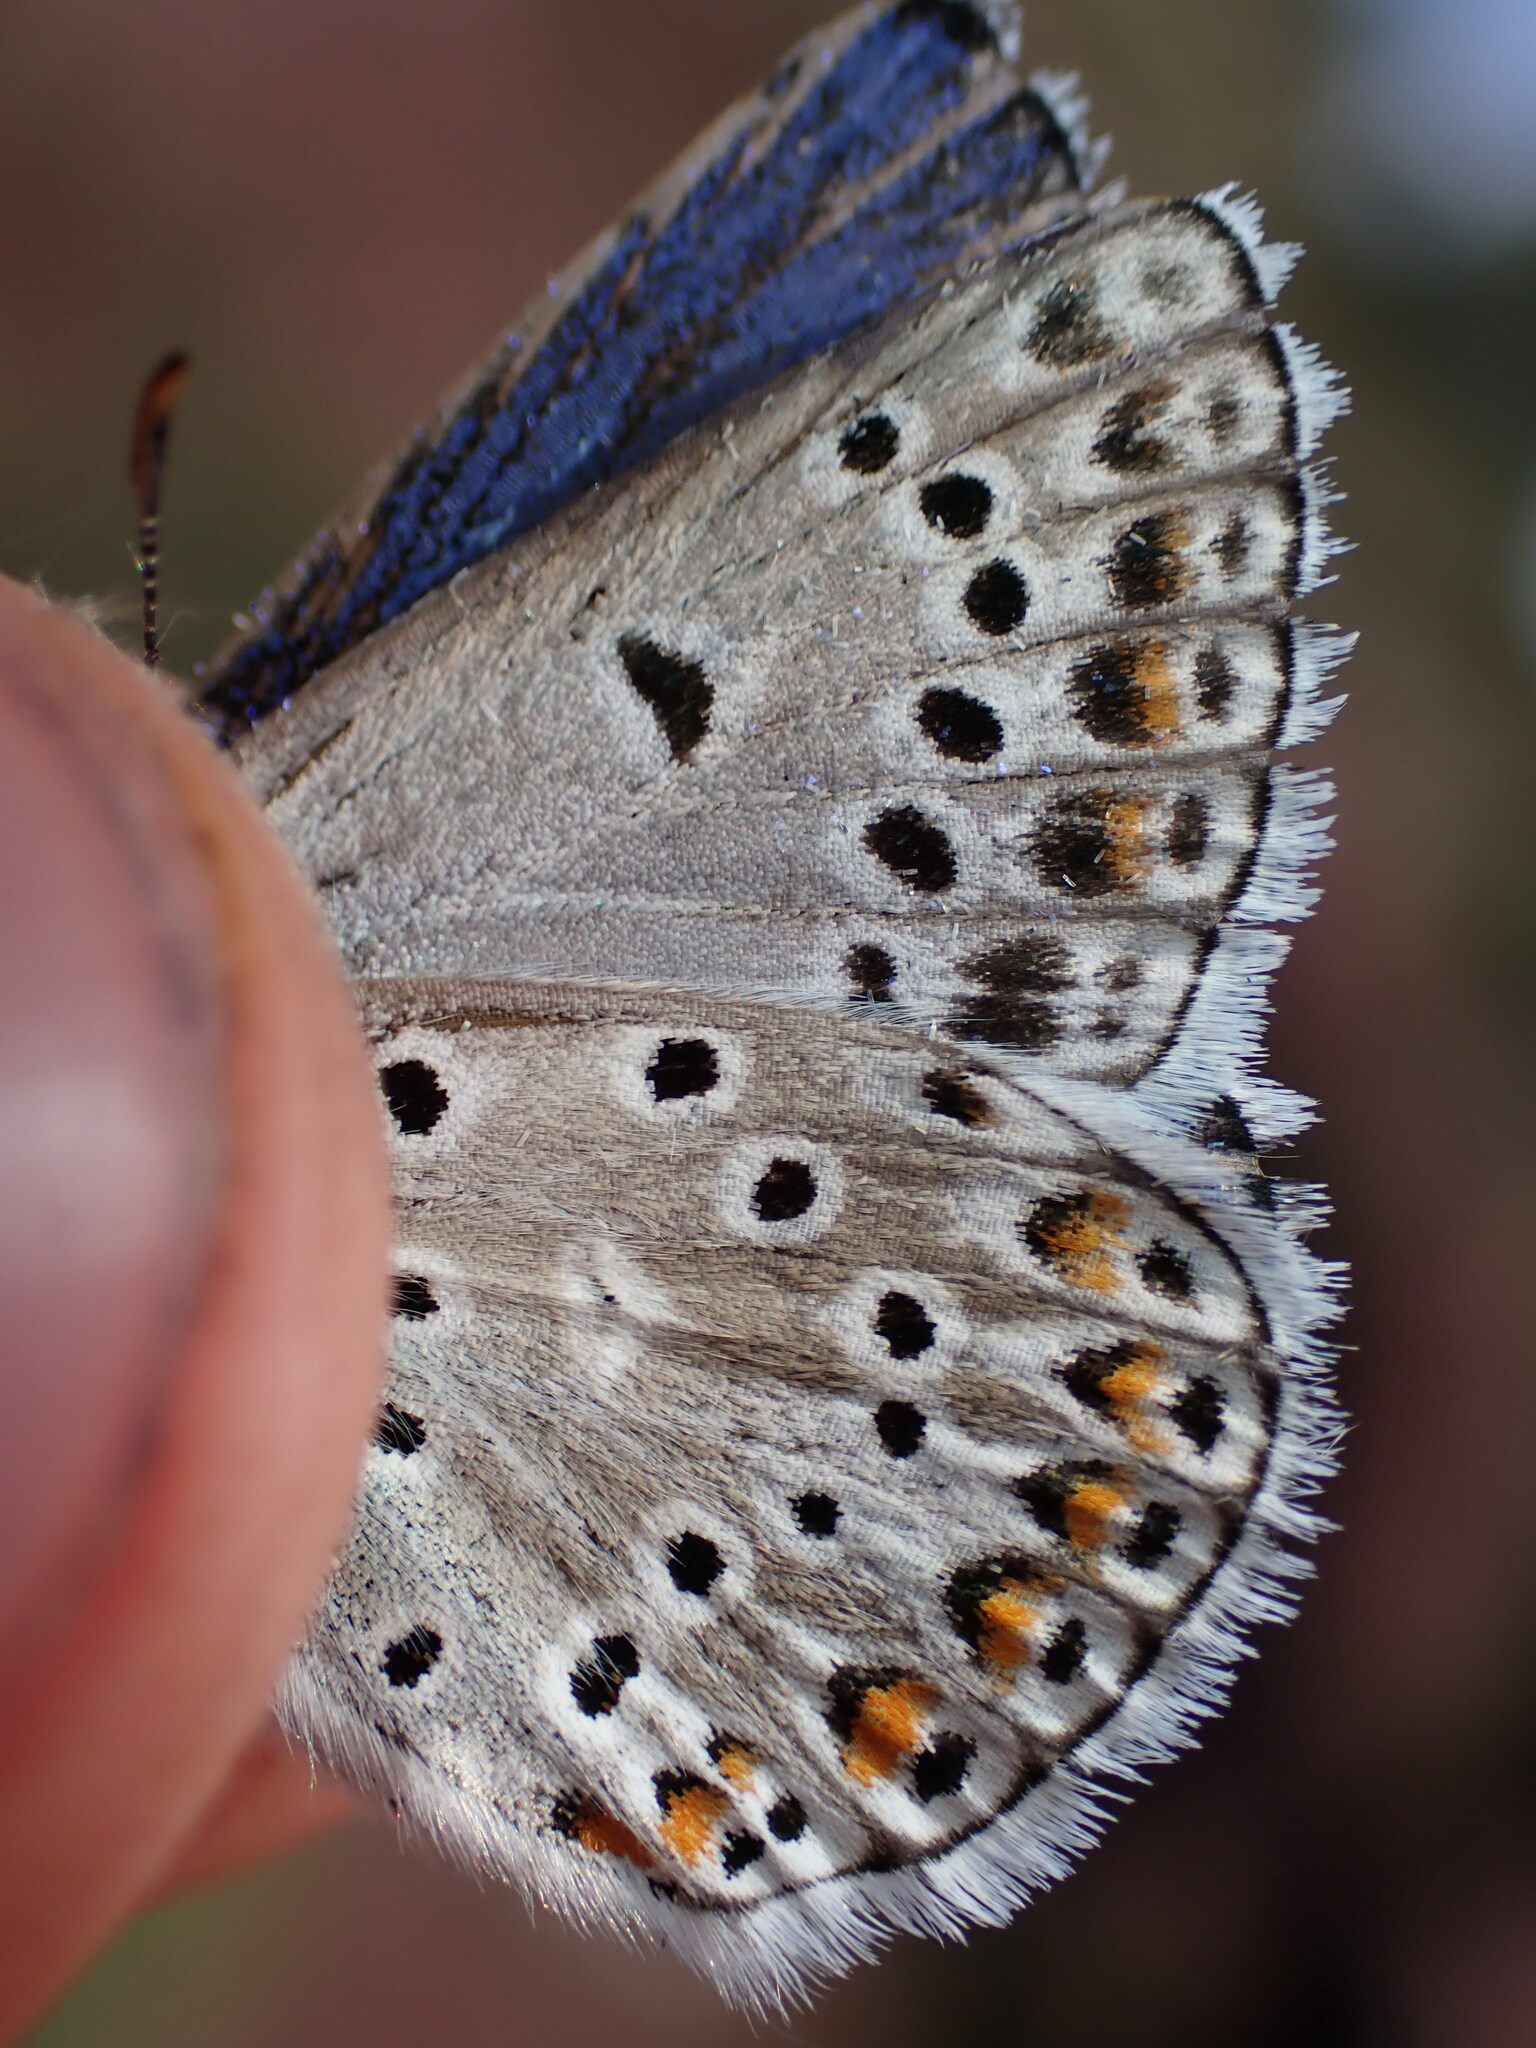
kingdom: Animalia
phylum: Arthropoda
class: Insecta
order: Lepidoptera
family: Lycaenidae
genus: Plebicula
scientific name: Plebicula escheri
